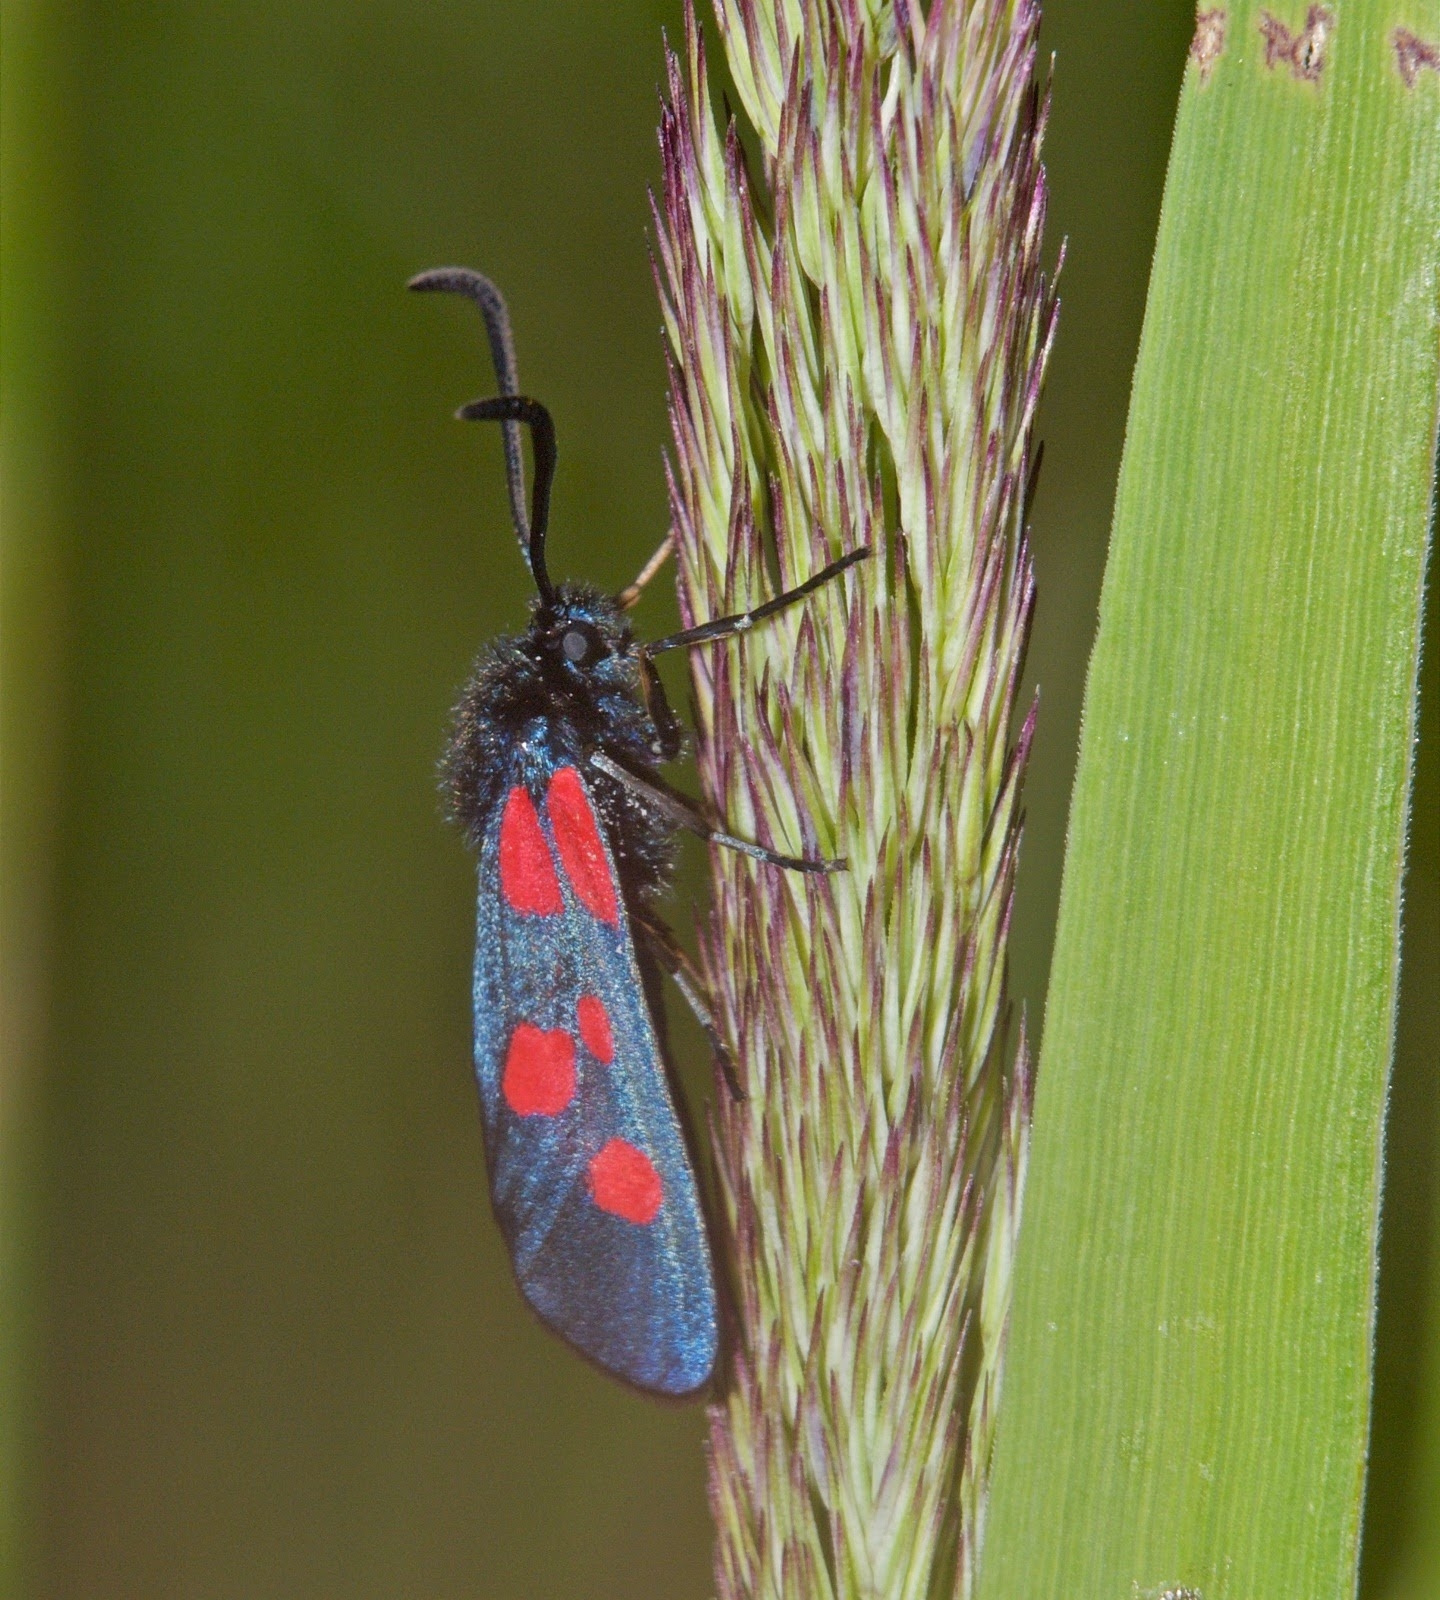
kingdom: Animalia
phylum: Arthropoda
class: Insecta
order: Lepidoptera
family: Zygaenidae
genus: Zygaena
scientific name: Zygaena viciae
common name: New forest burnet
